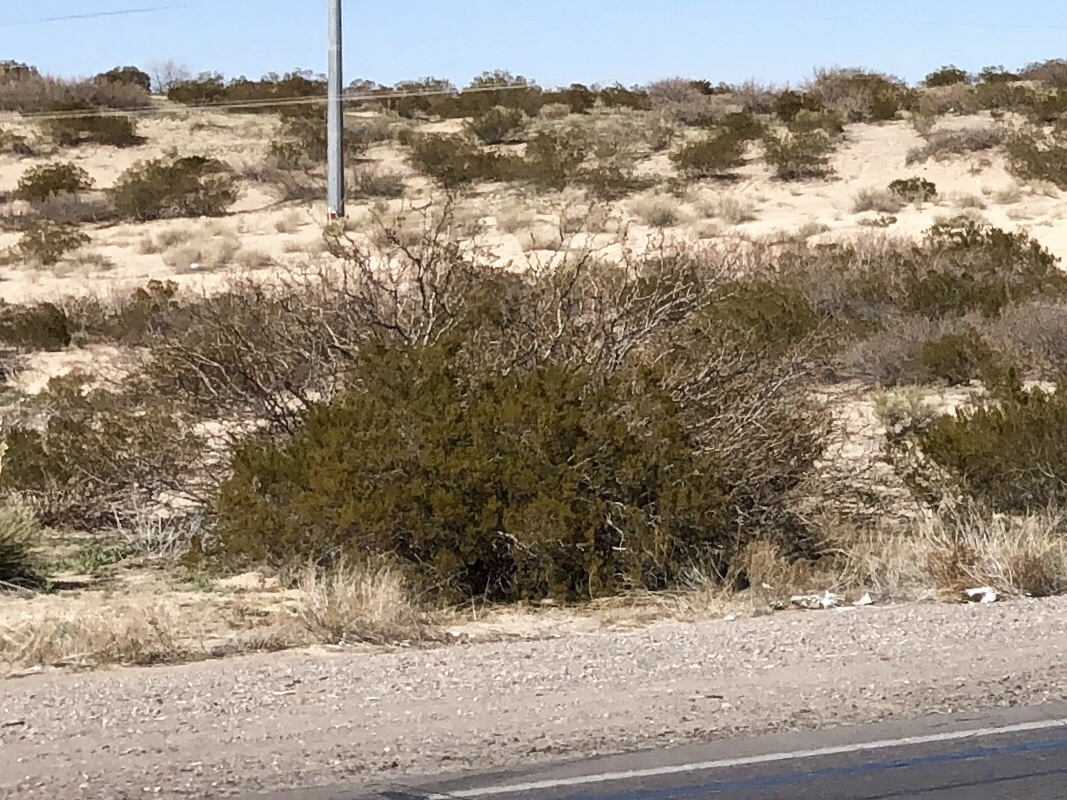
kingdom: Plantae
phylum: Tracheophyta
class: Magnoliopsida
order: Zygophyllales
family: Zygophyllaceae
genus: Larrea
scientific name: Larrea tridentata
